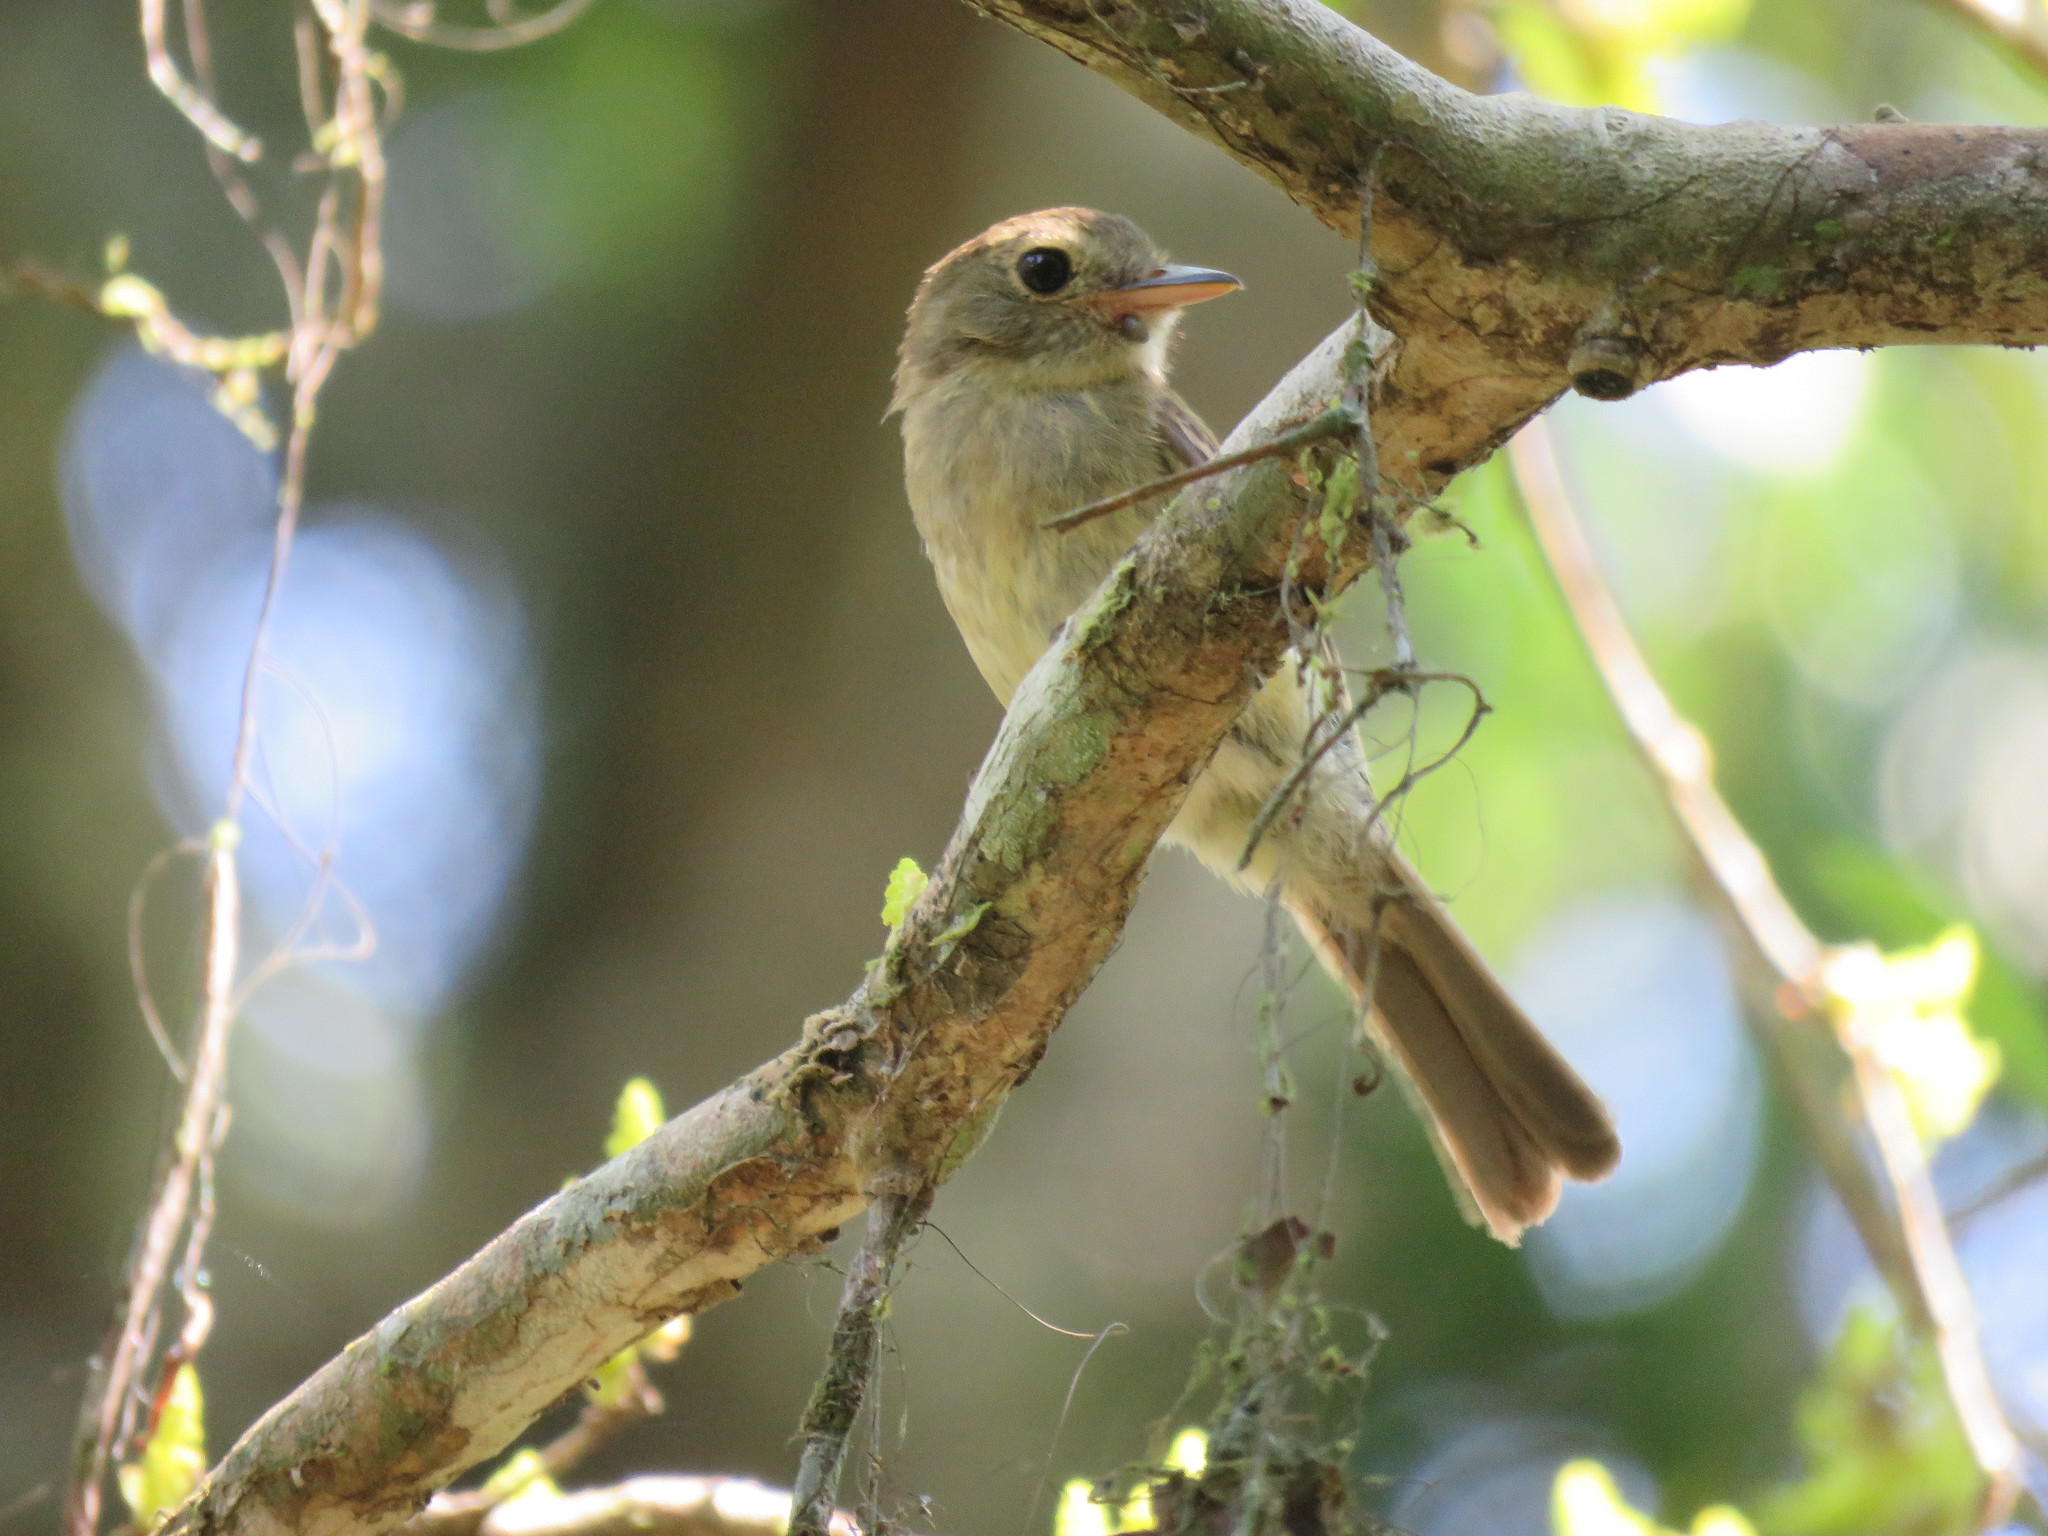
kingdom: Animalia
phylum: Chordata
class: Aves
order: Passeriformes
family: Tyrannidae
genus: Lathrotriccus
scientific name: Lathrotriccus euleri
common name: Euler's flycatcher
